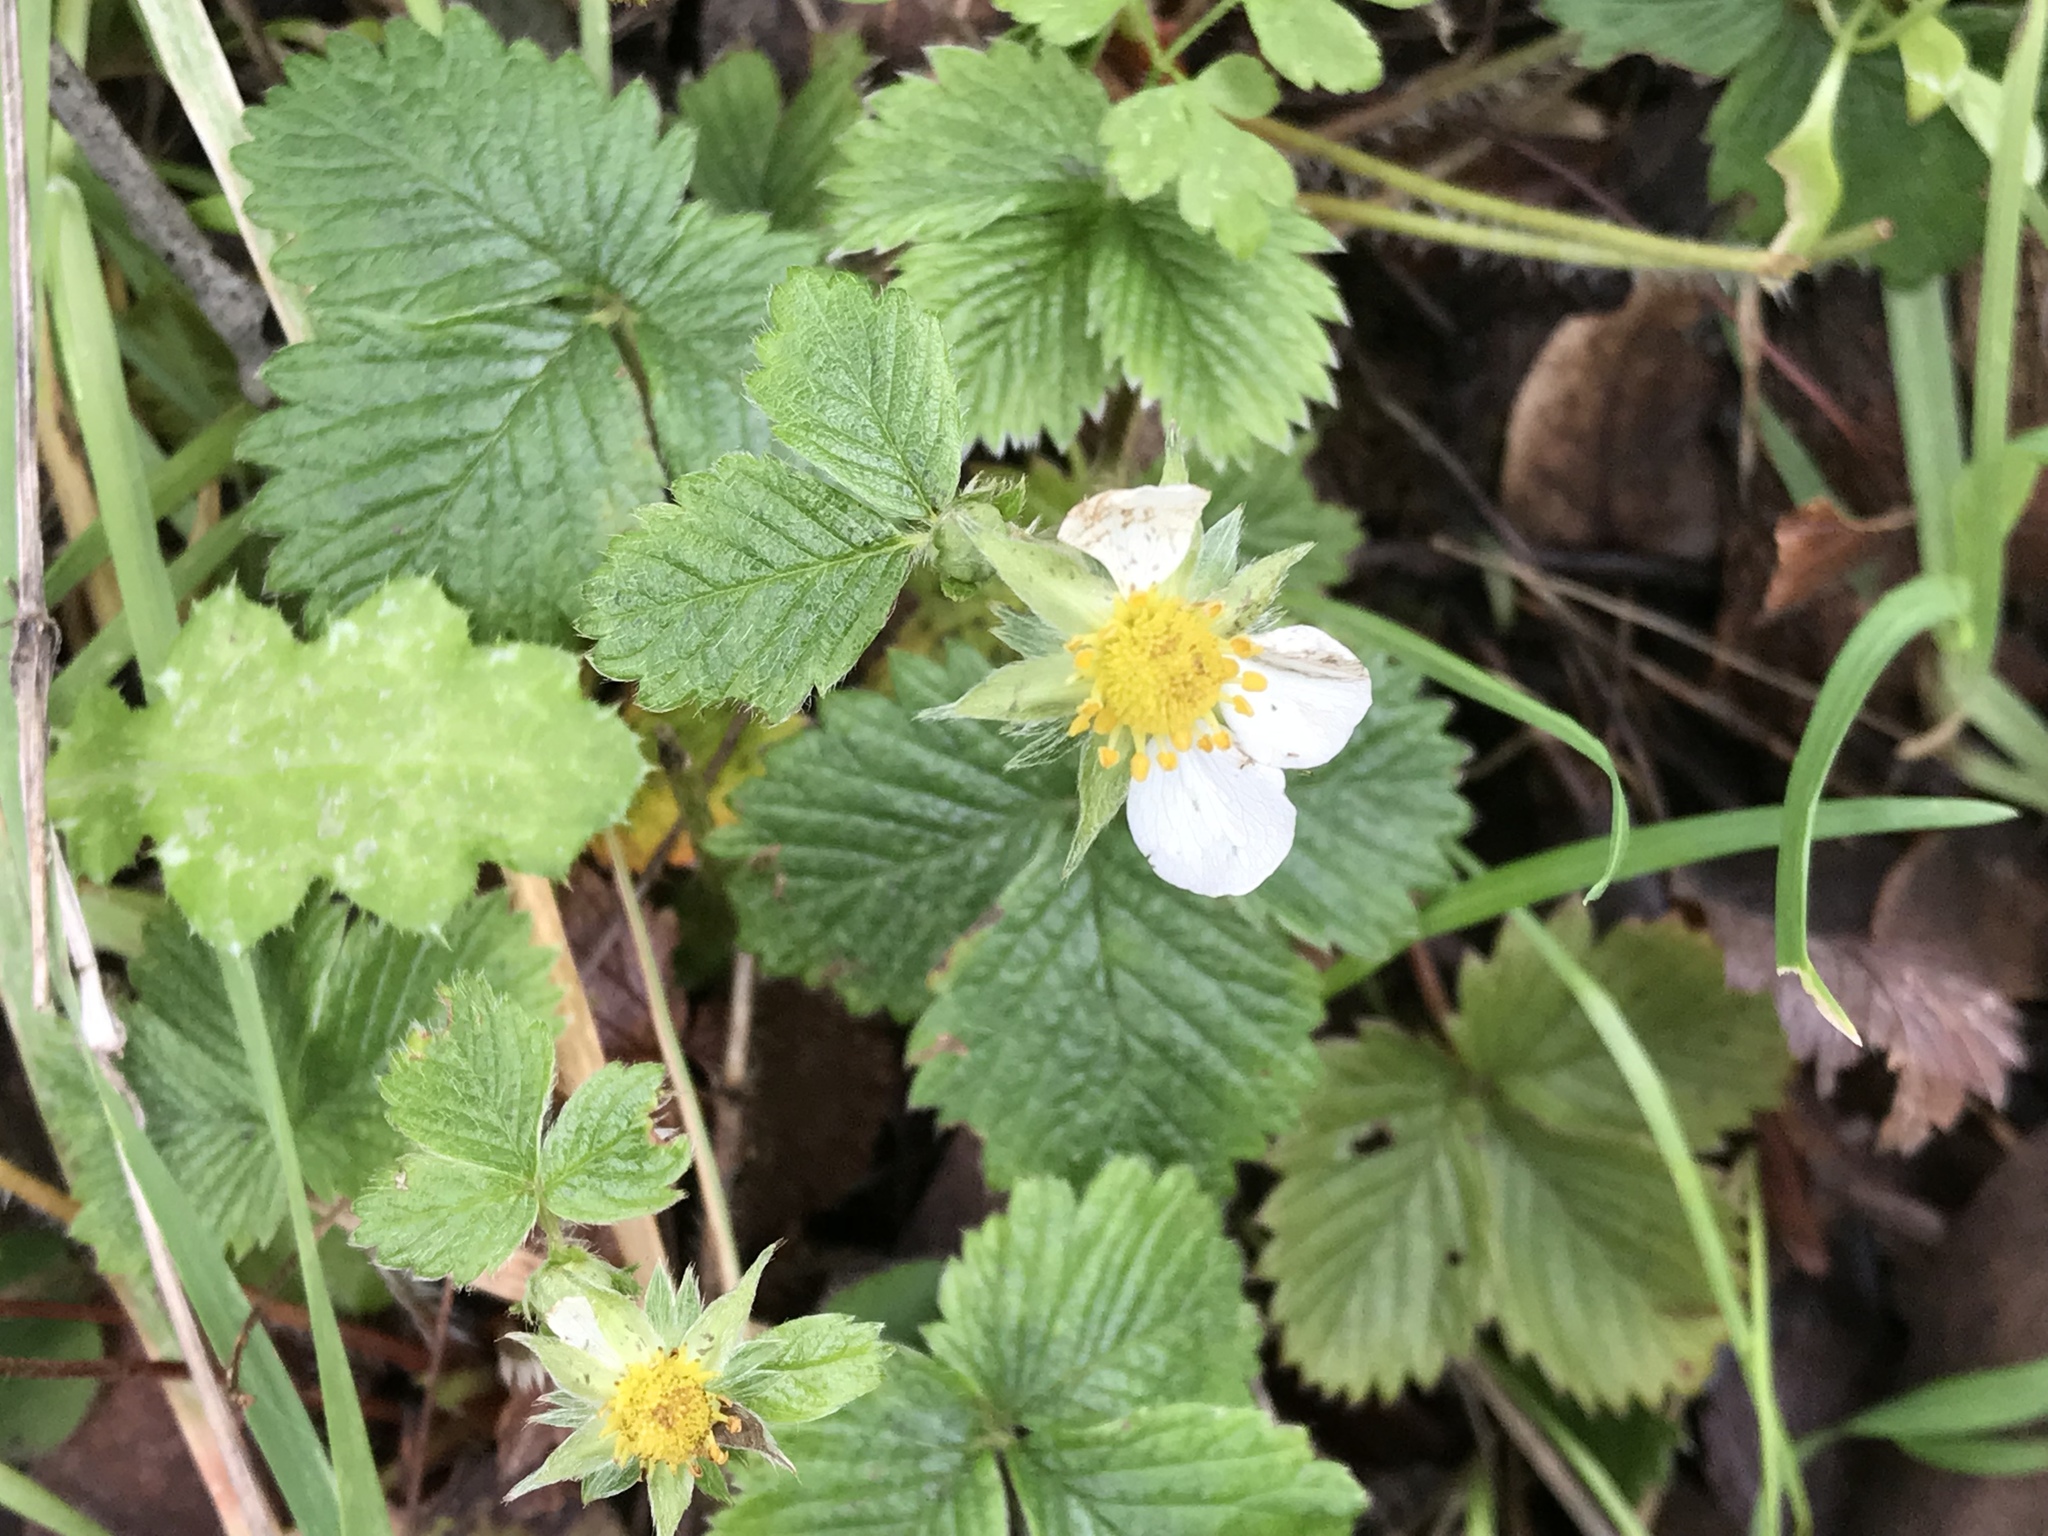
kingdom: Plantae
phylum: Tracheophyta
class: Magnoliopsida
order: Rosales
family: Rosaceae
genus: Fragaria
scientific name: Fragaria vesca
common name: Wild strawberry
